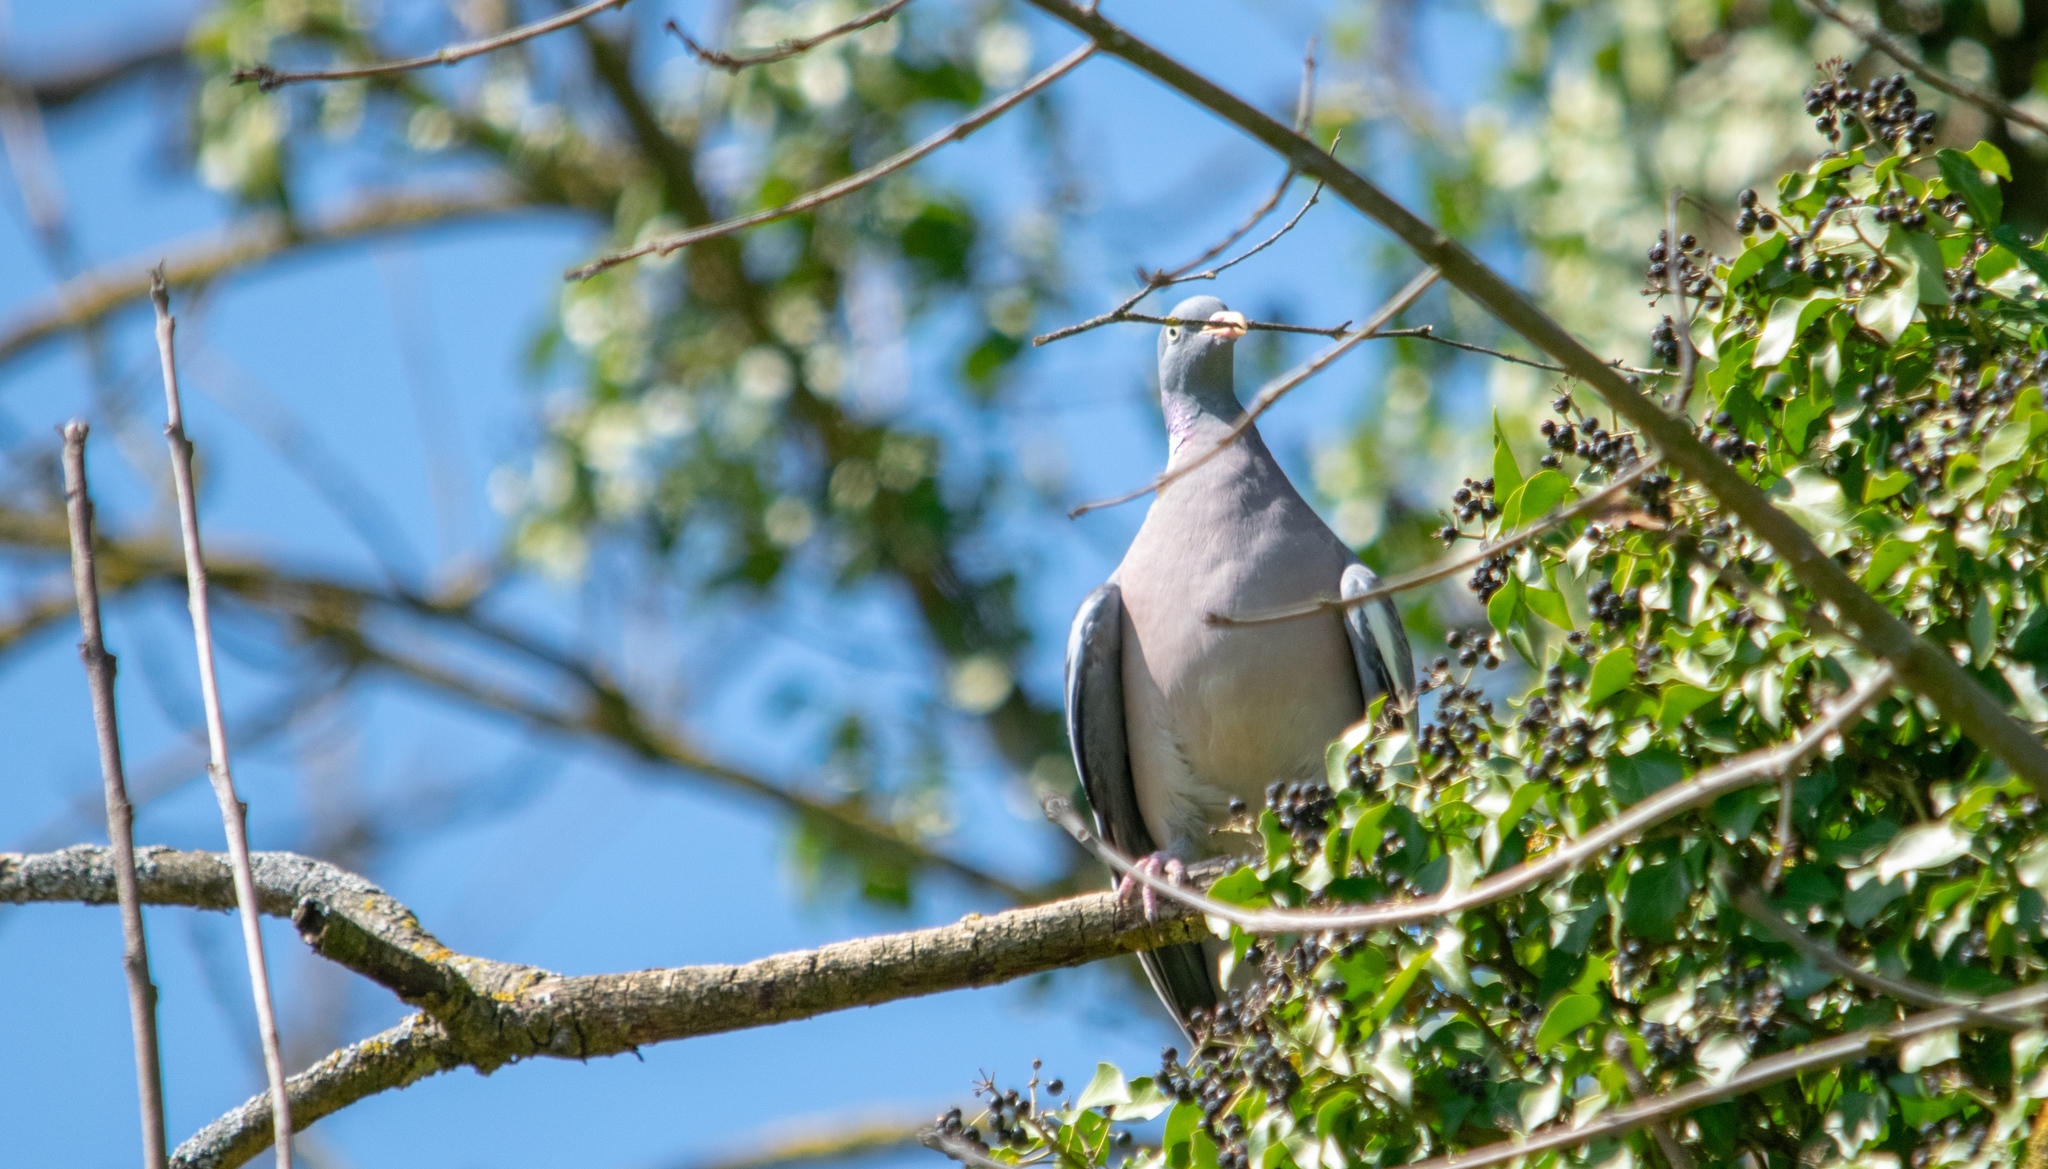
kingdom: Animalia
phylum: Chordata
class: Aves
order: Columbiformes
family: Columbidae
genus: Columba
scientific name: Columba palumbus
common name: Common wood pigeon
